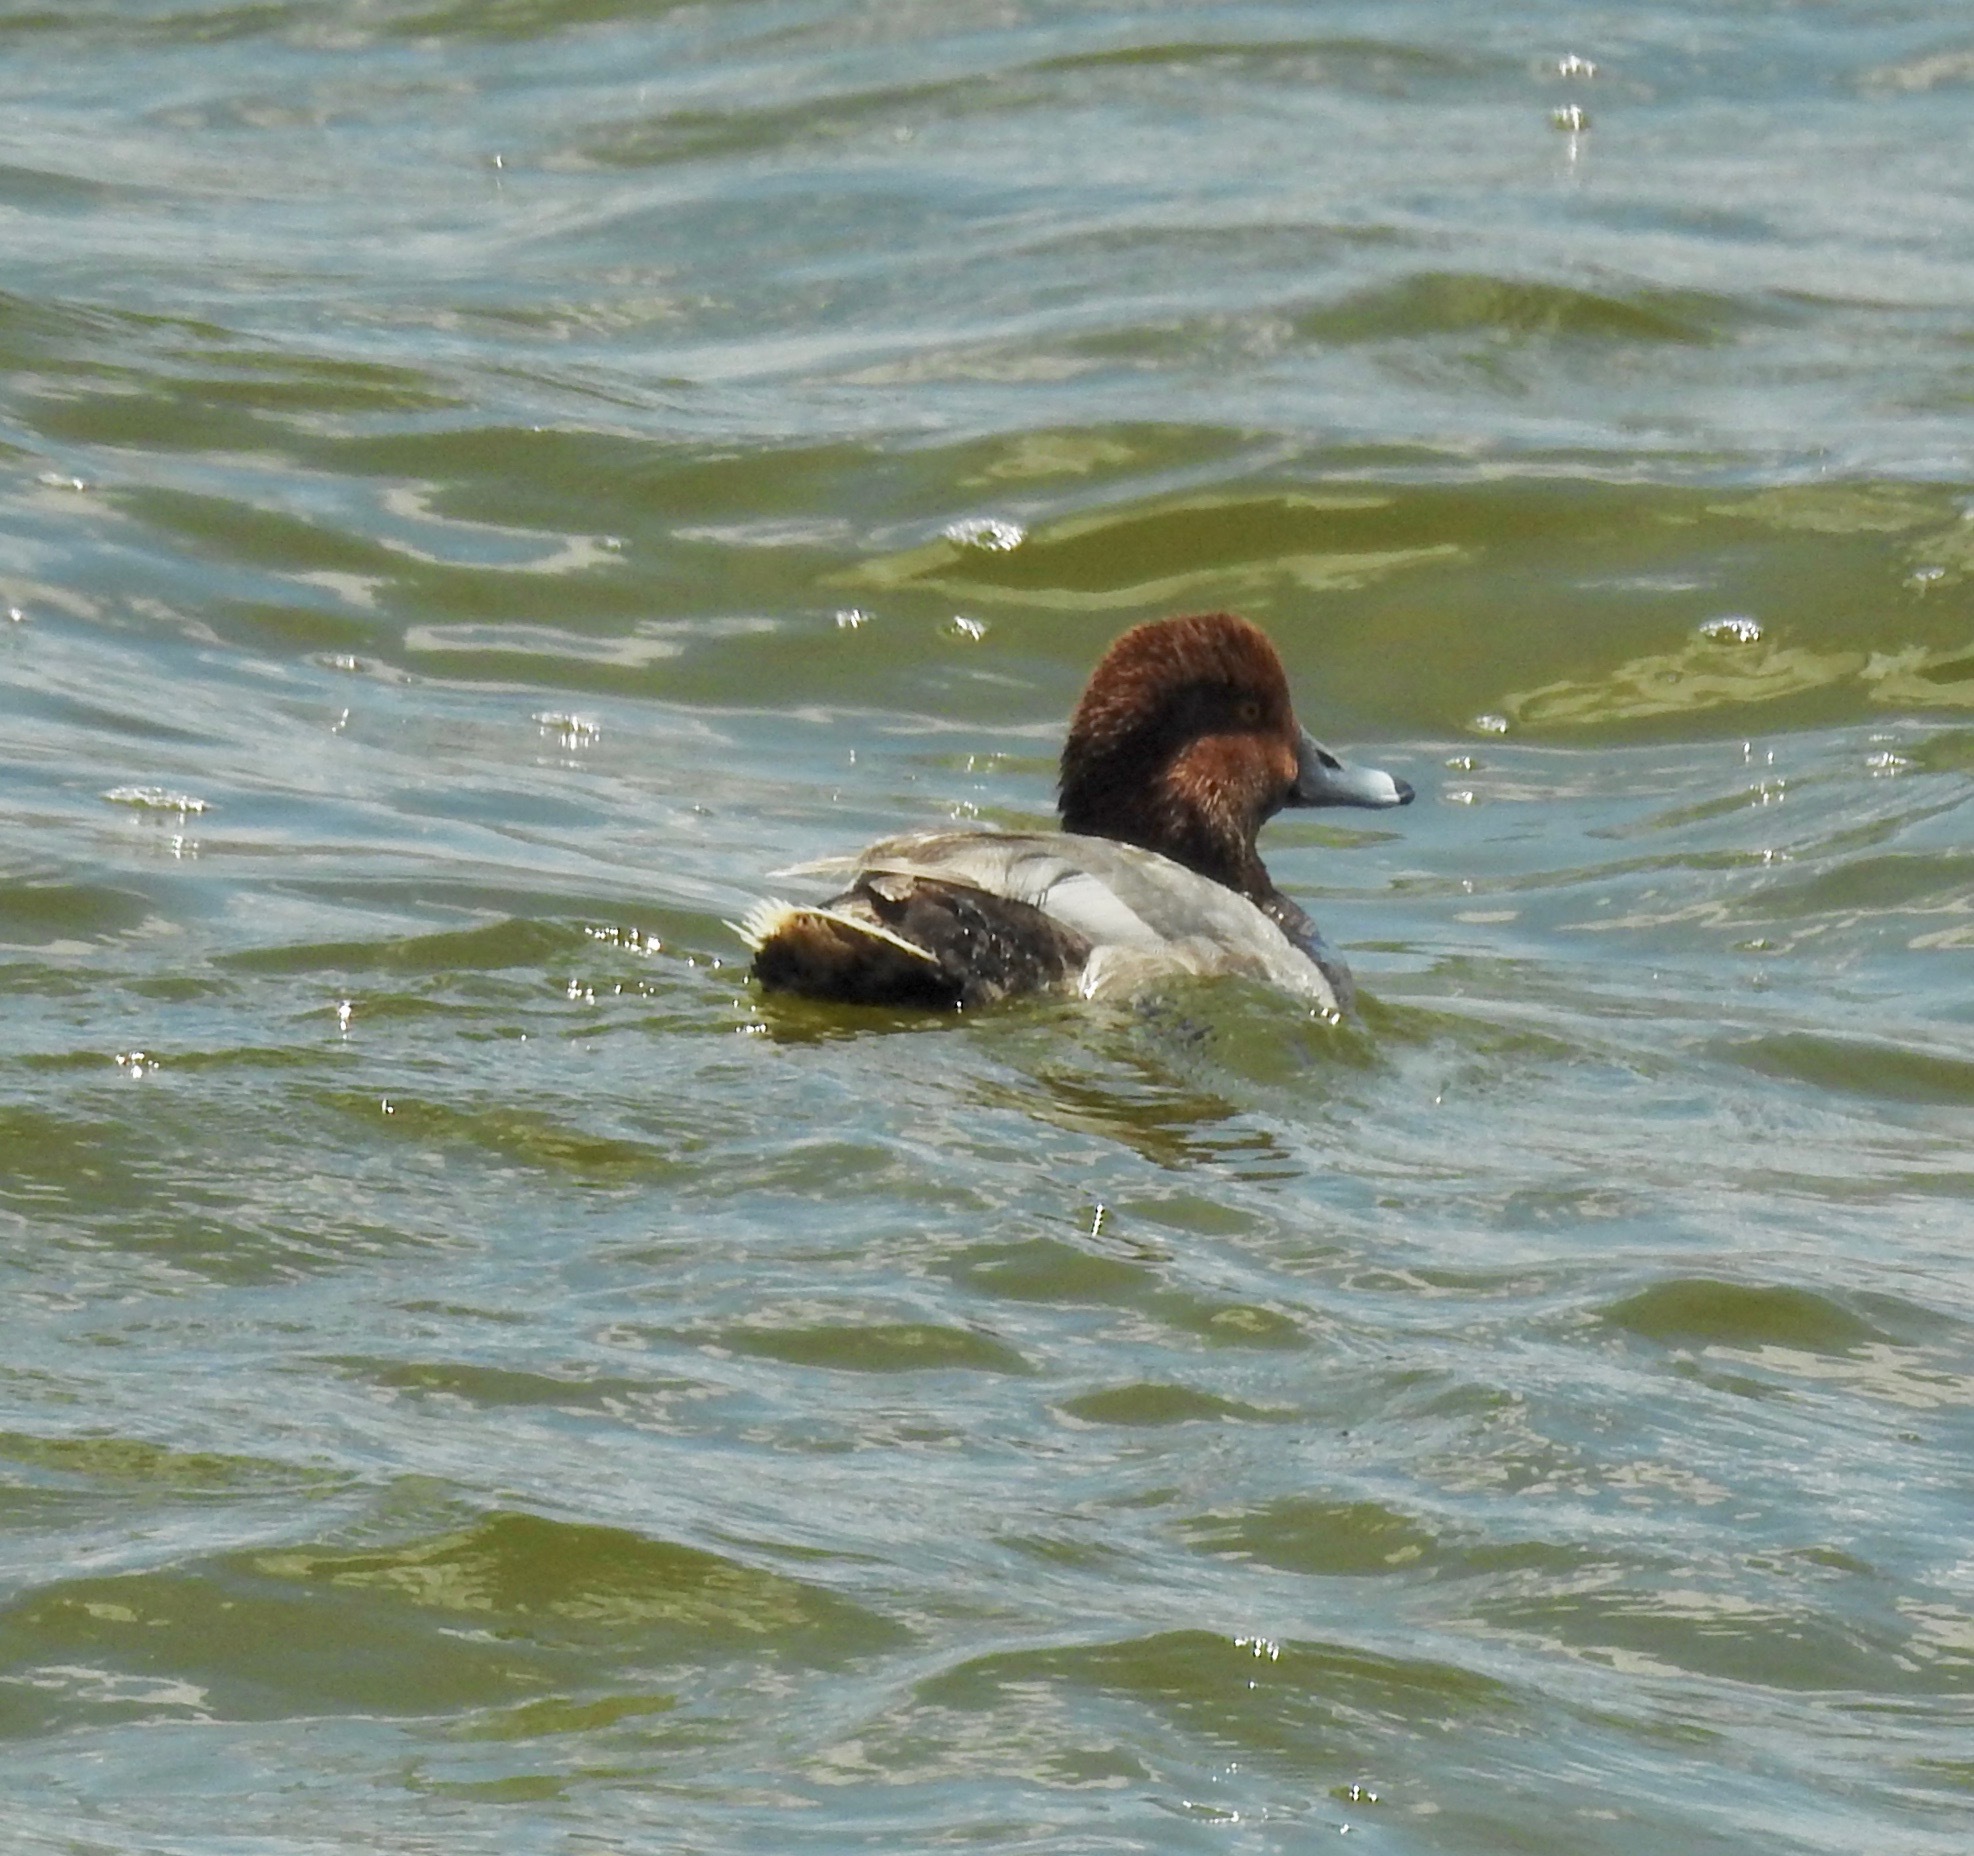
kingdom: Animalia
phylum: Chordata
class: Aves
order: Anseriformes
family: Anatidae
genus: Aythya
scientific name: Aythya americana
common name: Redhead
